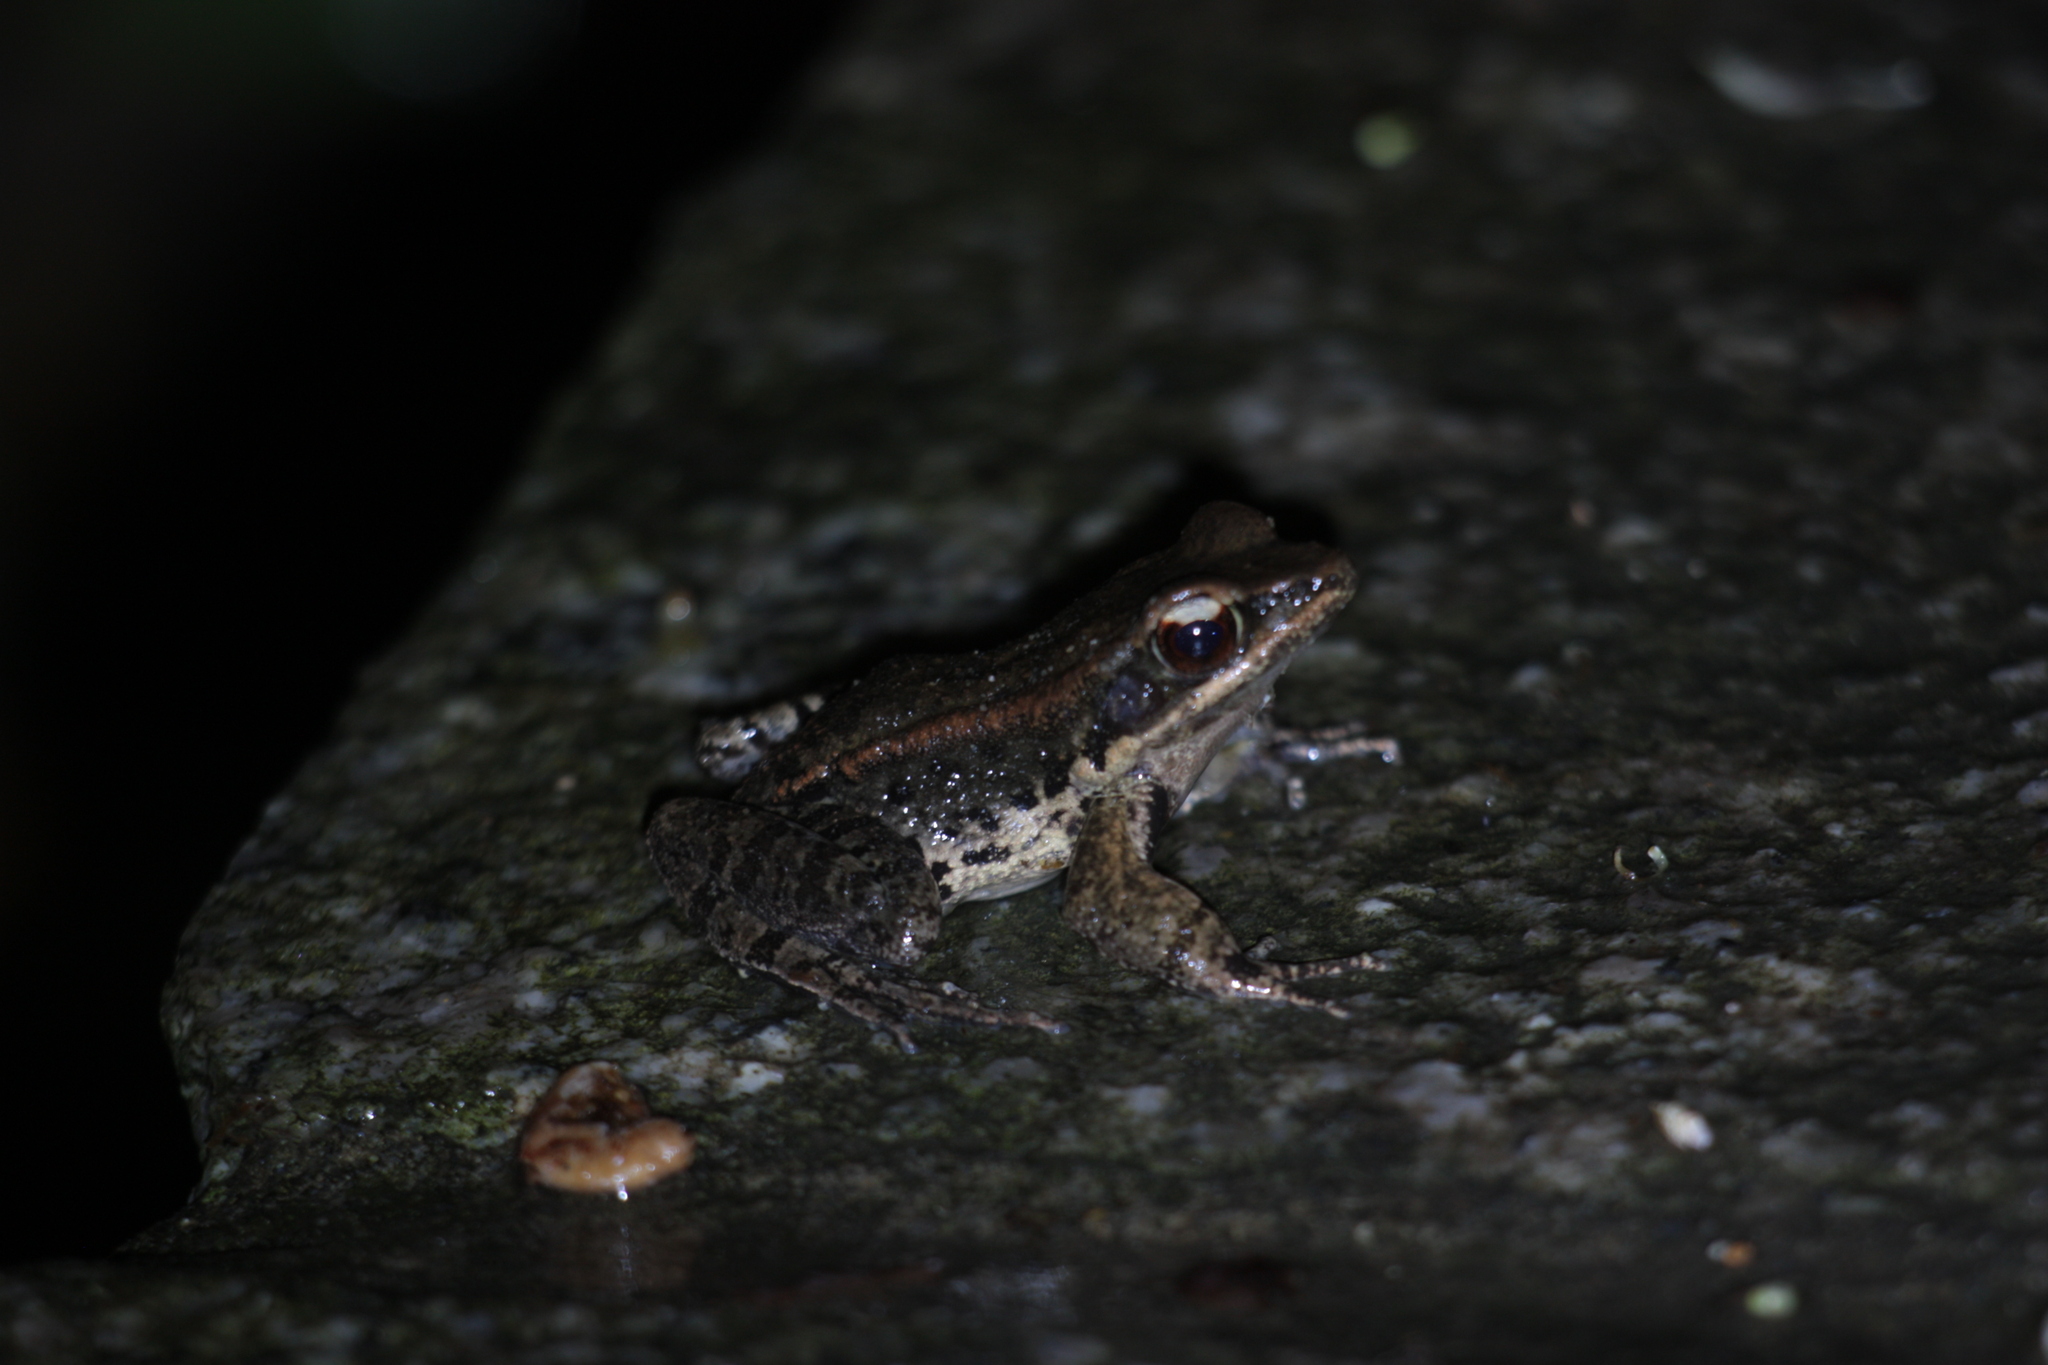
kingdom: Animalia
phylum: Chordata
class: Amphibia
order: Anura
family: Ranidae
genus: Hylarana
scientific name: Hylarana latouchii
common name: Broad-folded frog
